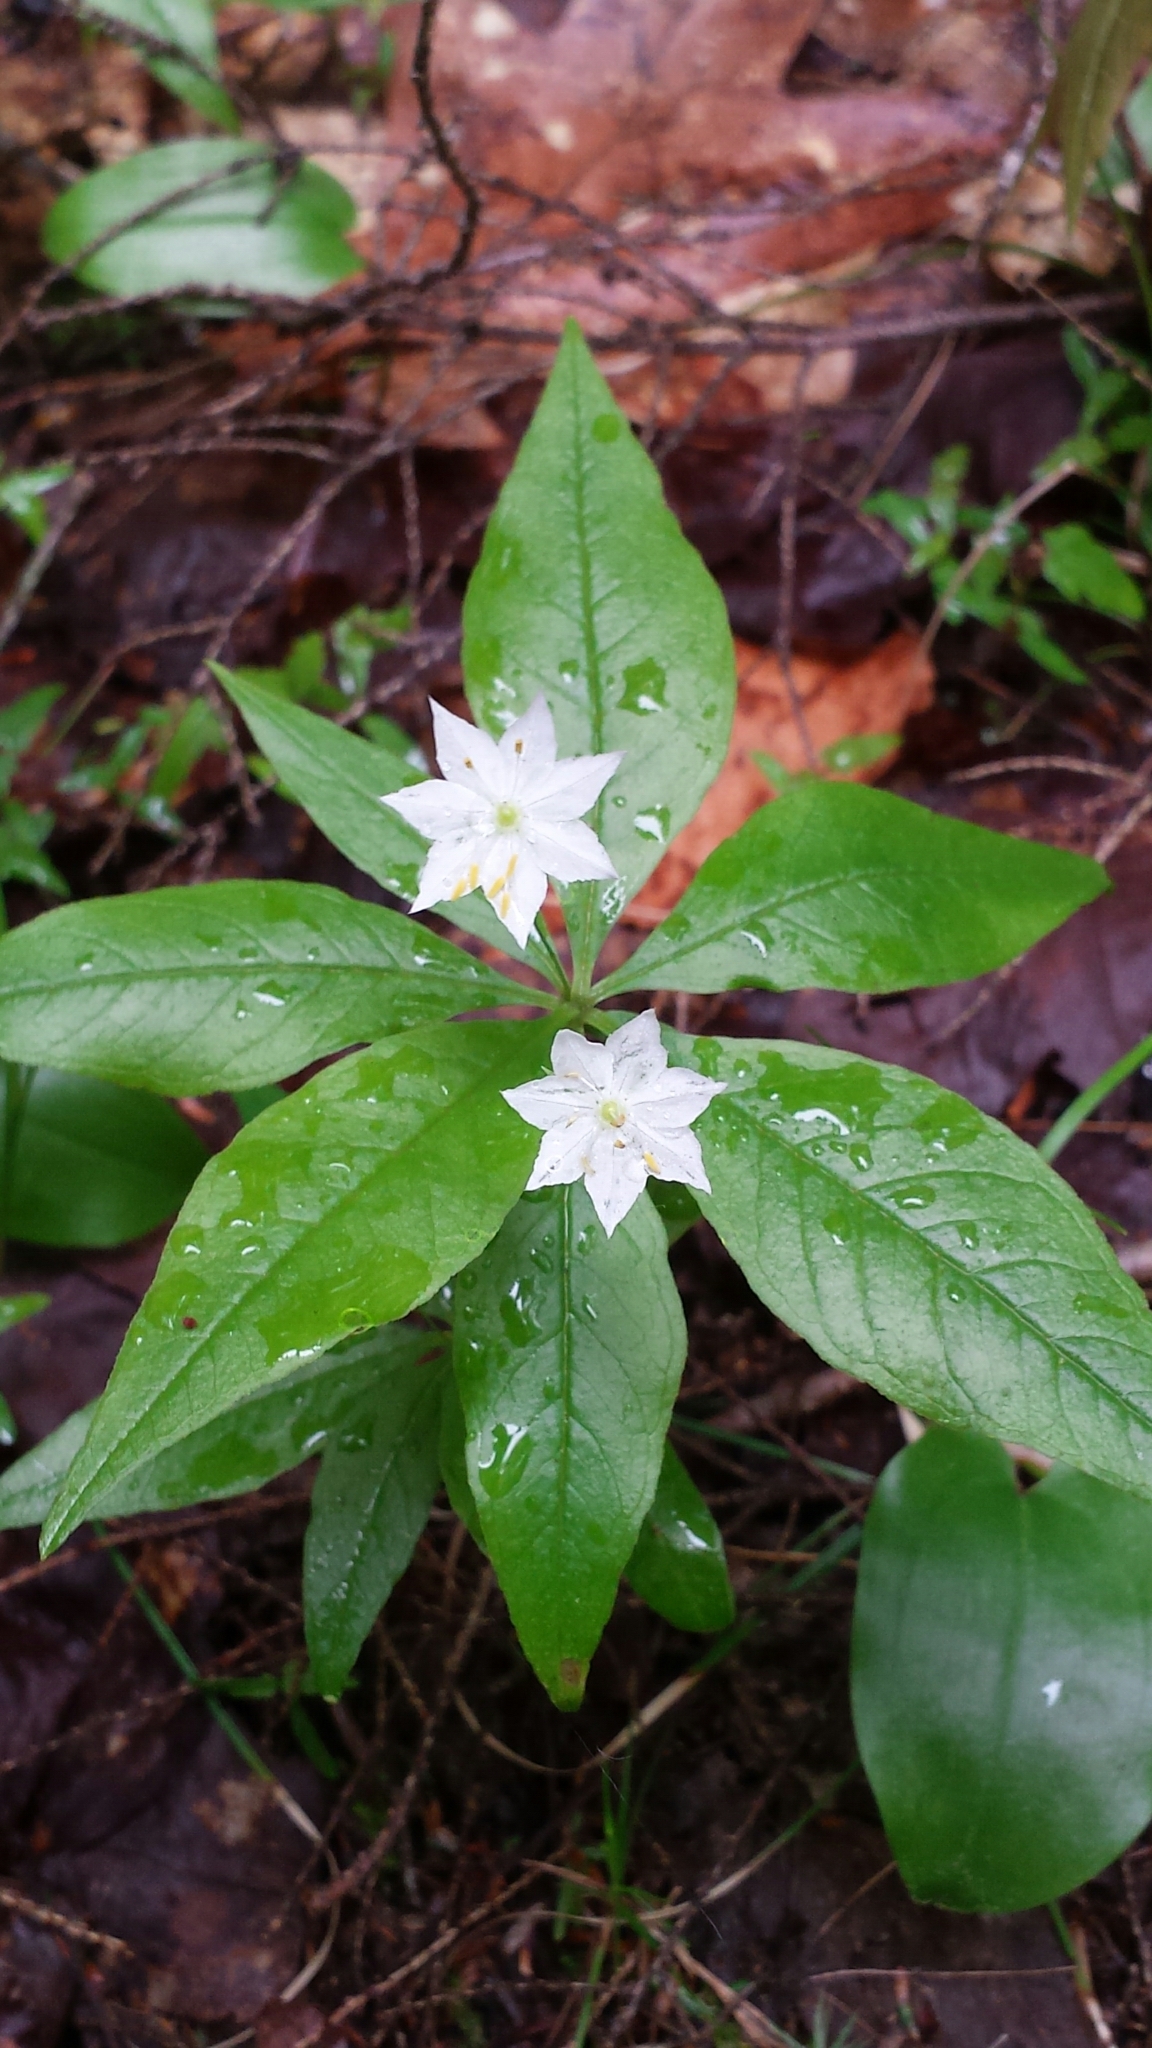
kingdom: Plantae
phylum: Tracheophyta
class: Magnoliopsida
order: Ericales
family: Primulaceae
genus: Lysimachia
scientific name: Lysimachia borealis
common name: American starflower
